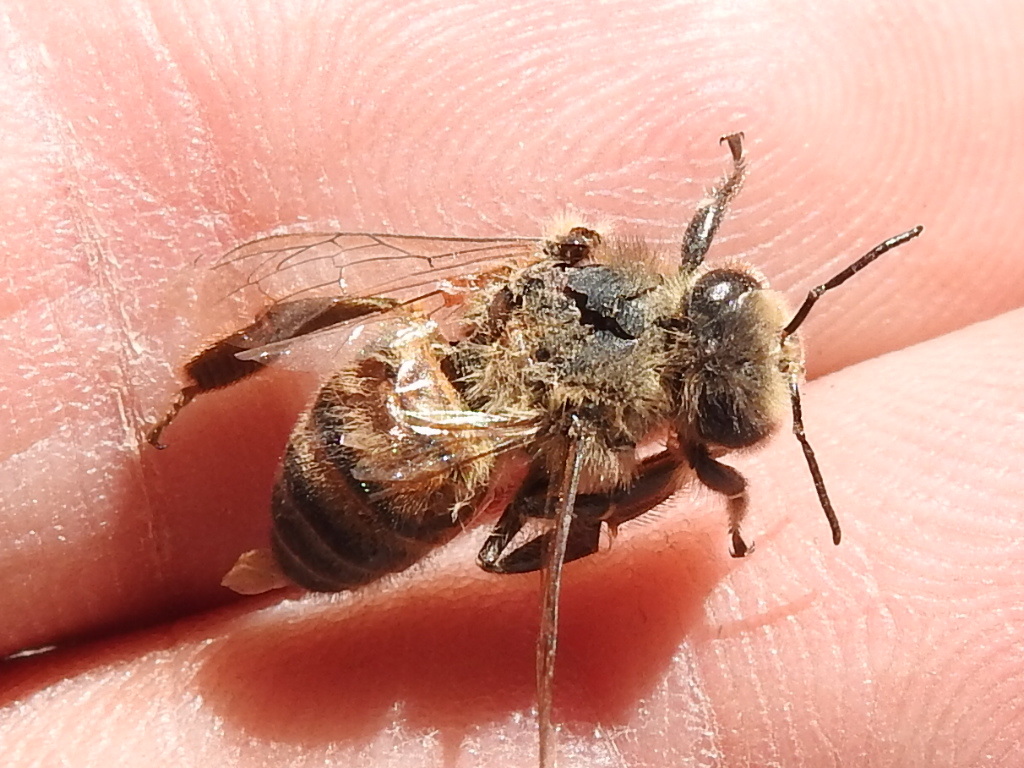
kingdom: Animalia
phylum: Arthropoda
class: Insecta
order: Hymenoptera
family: Apidae
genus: Apis
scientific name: Apis mellifera
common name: Honey bee
